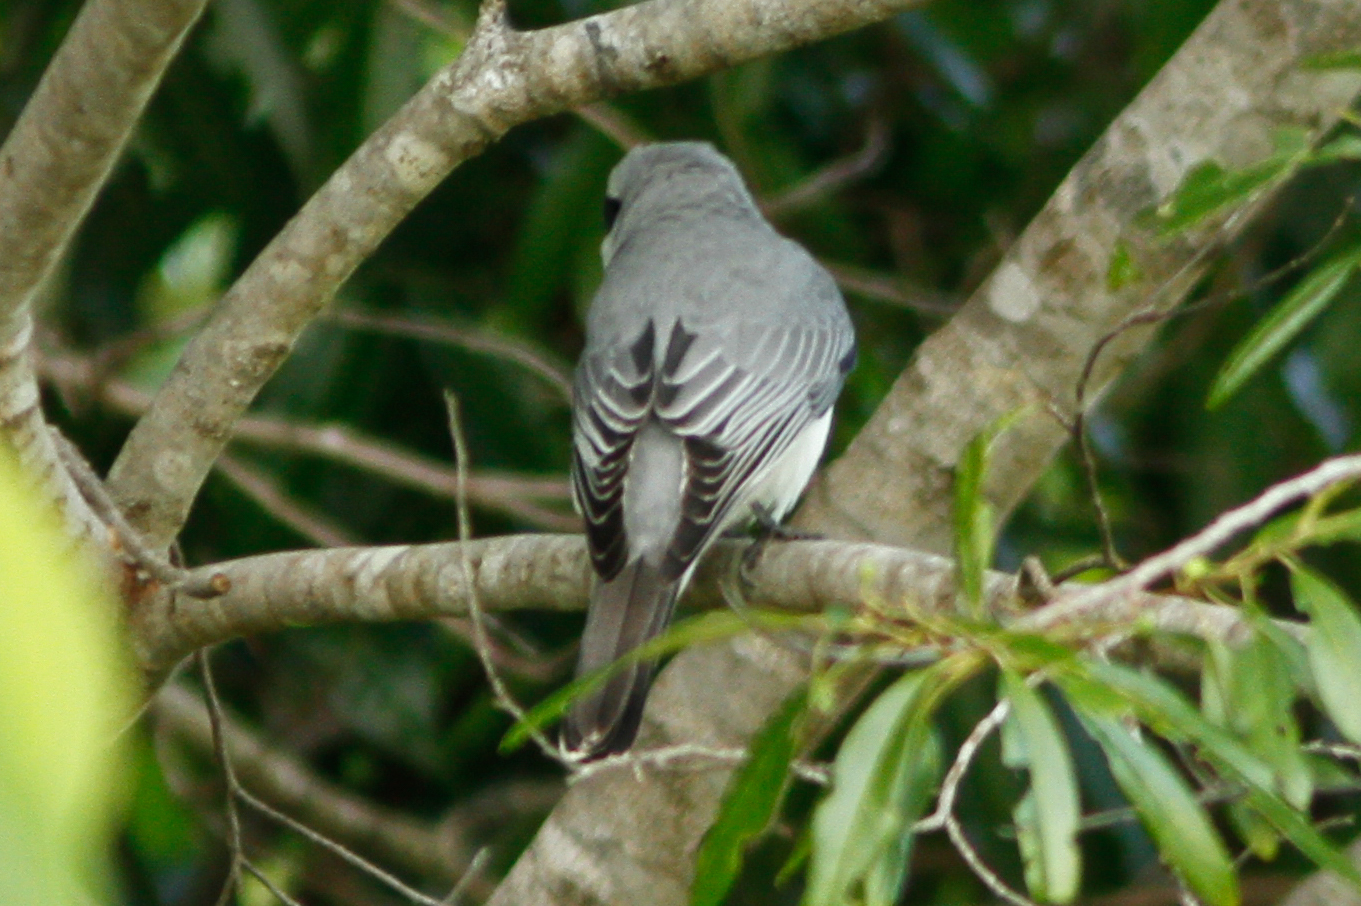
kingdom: Animalia
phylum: Chordata
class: Aves
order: Passeriformes
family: Campephagidae
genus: Coracina
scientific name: Coracina papuensis
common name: White-bellied cuckooshrike
